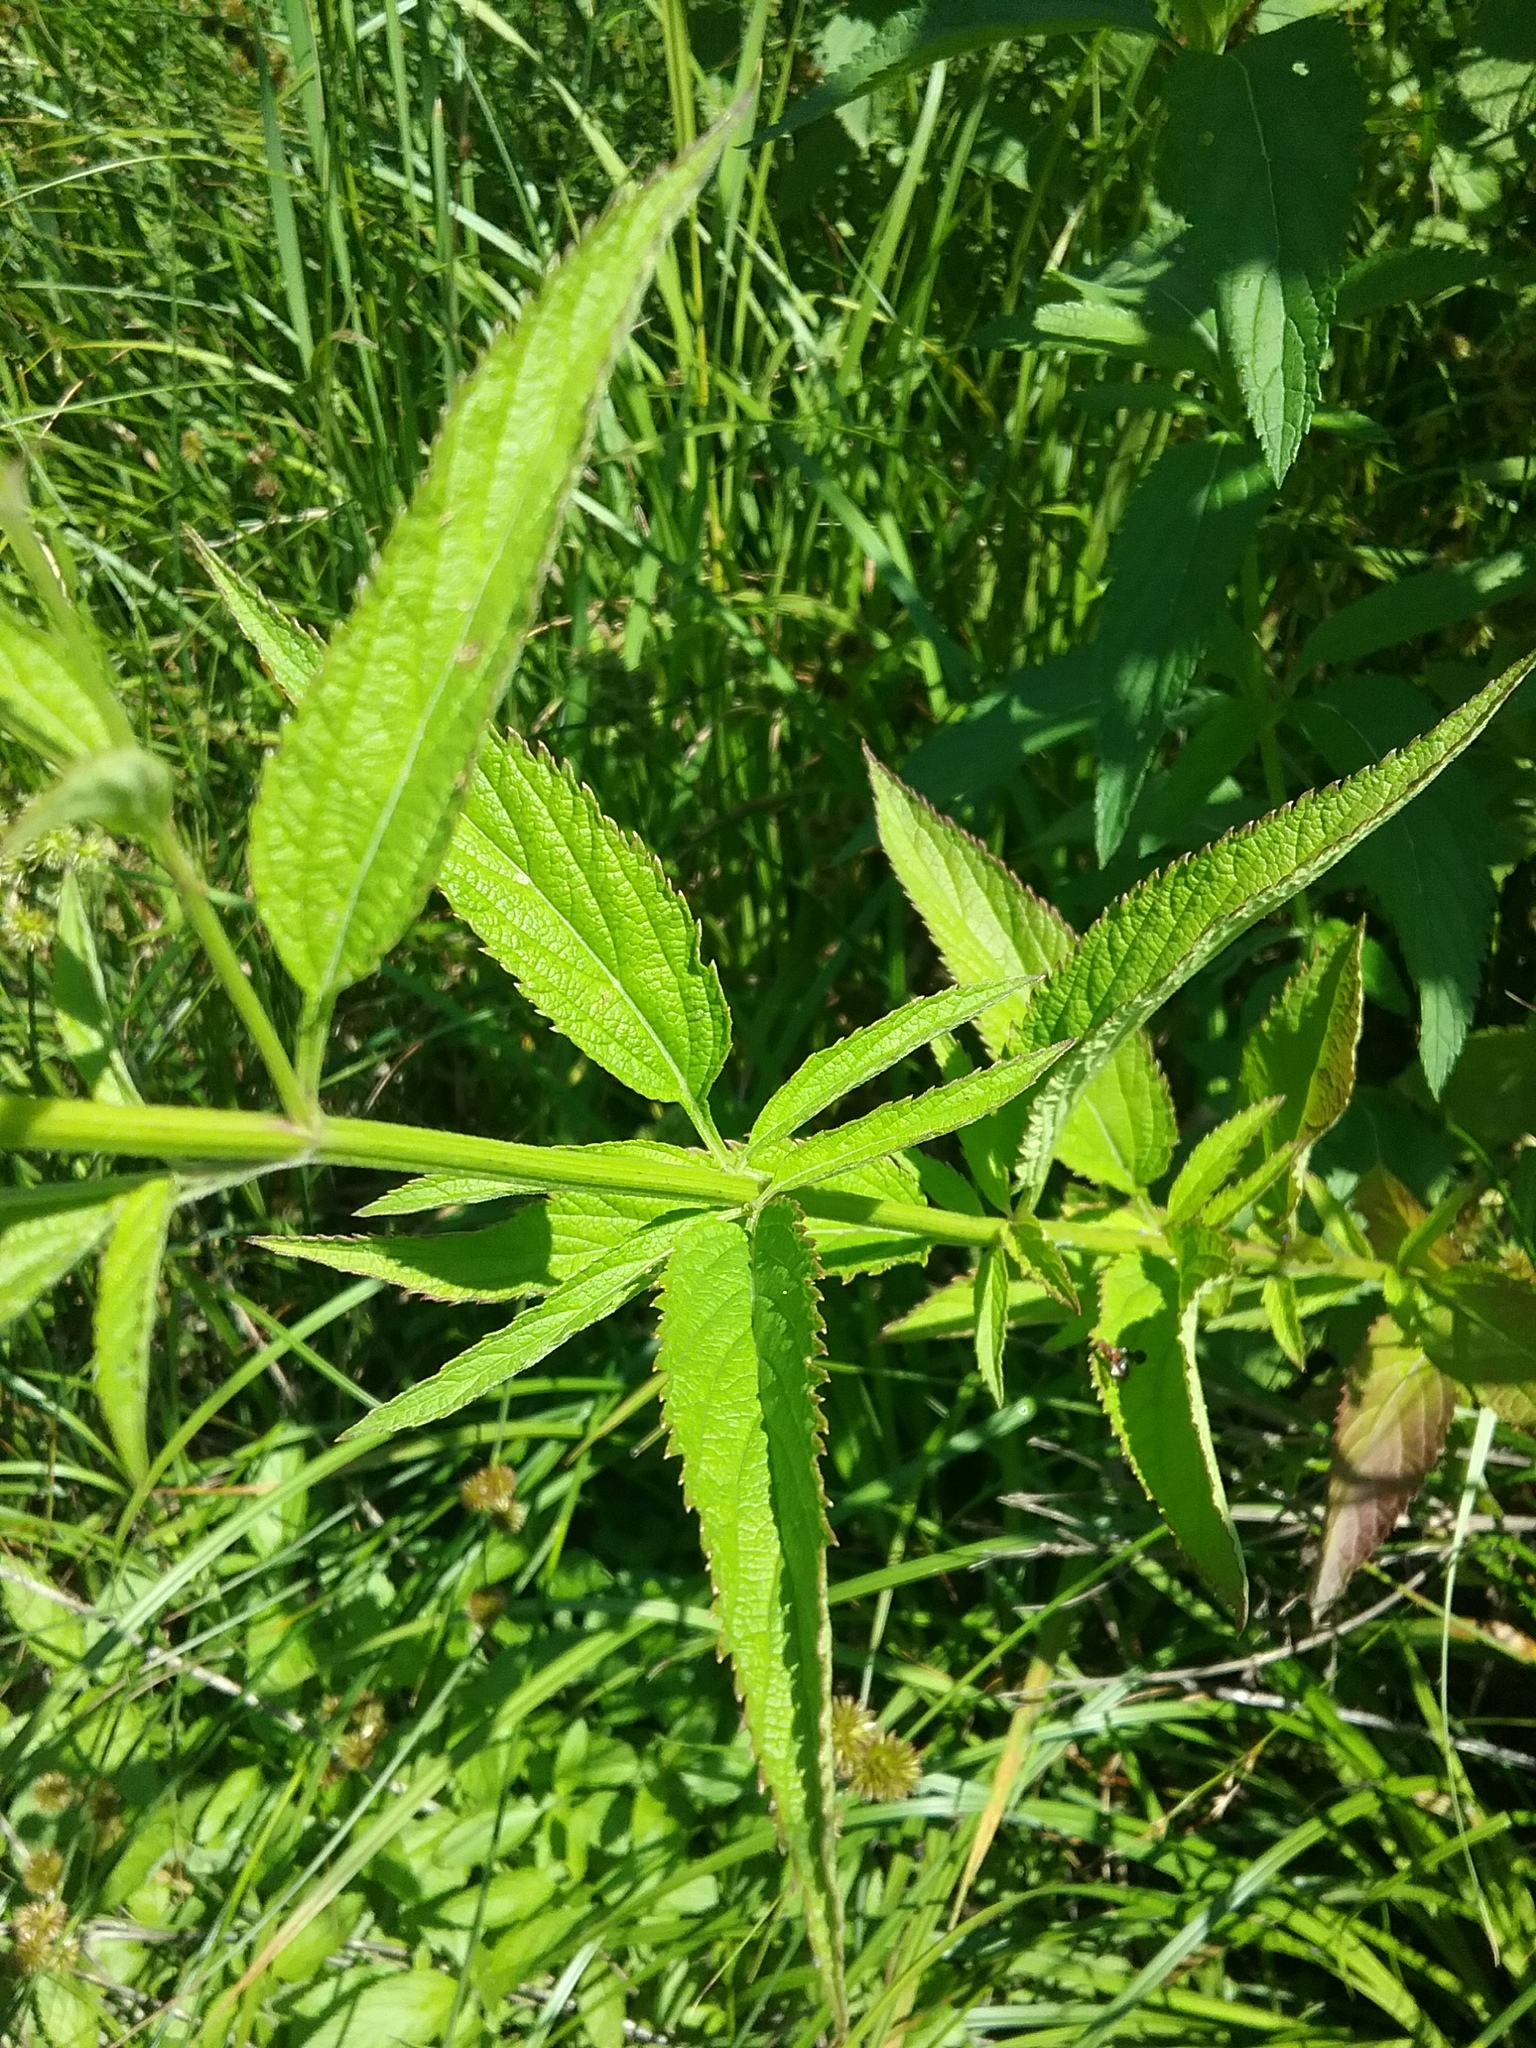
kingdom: Plantae
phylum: Tracheophyta
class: Magnoliopsida
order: Lamiales
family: Verbenaceae
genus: Verbena
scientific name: Verbena hastata
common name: American blue vervain
